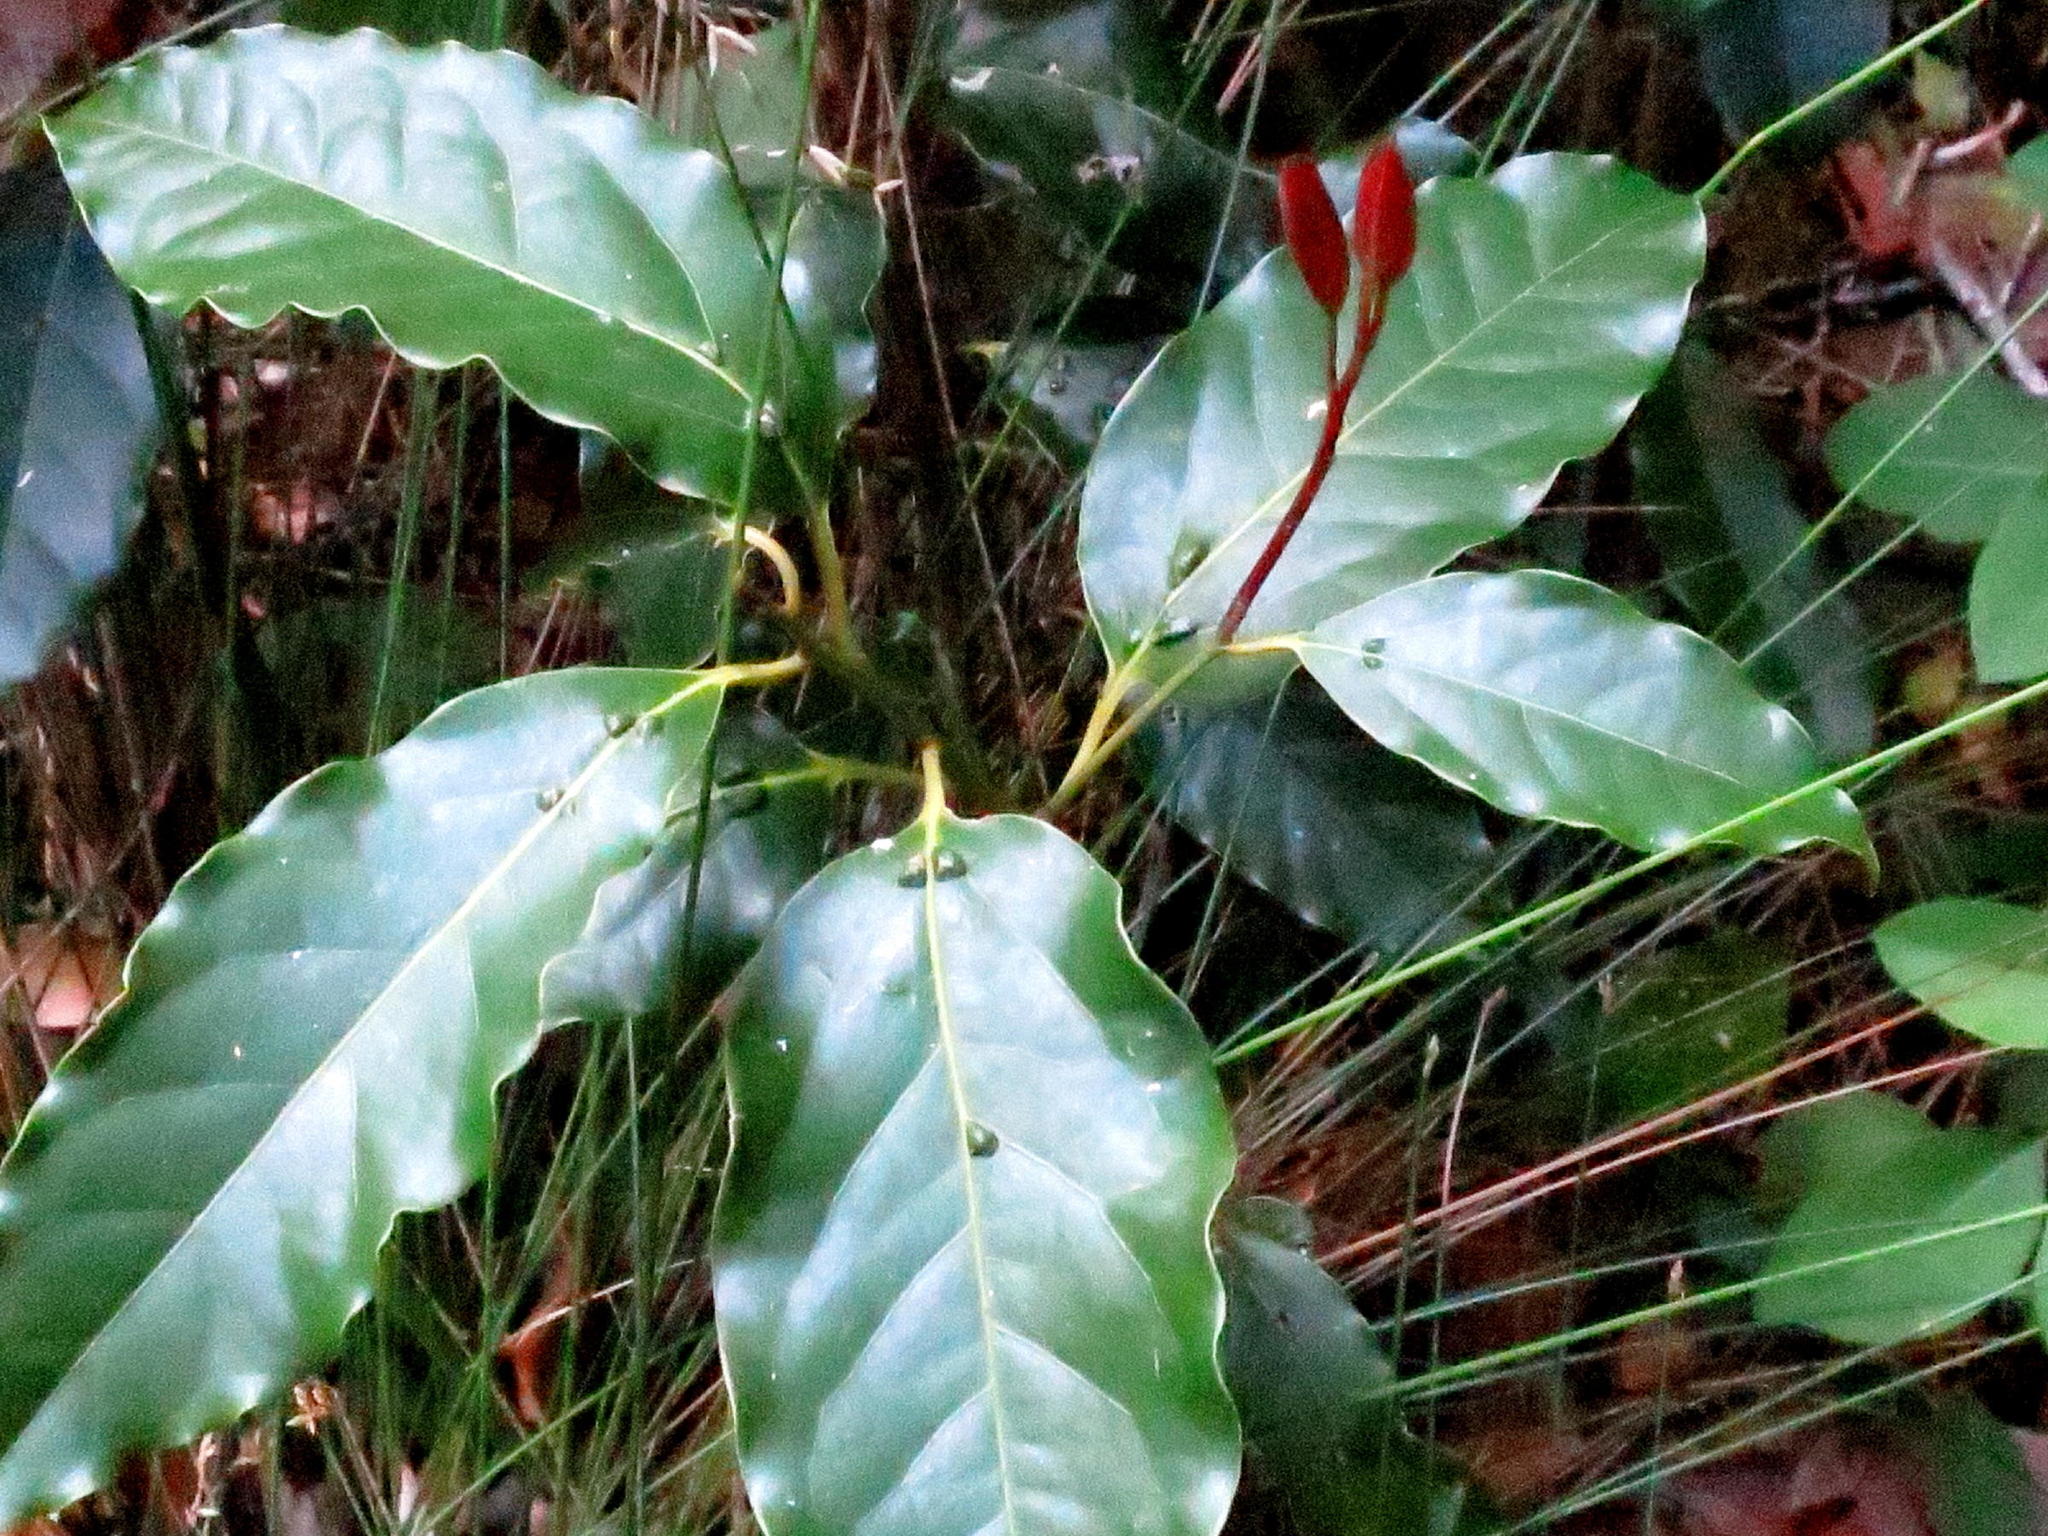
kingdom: Plantae
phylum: Tracheophyta
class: Magnoliopsida
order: Laurales
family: Lauraceae
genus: Ocotea
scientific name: Ocotea bullata
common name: Black stinkwood
